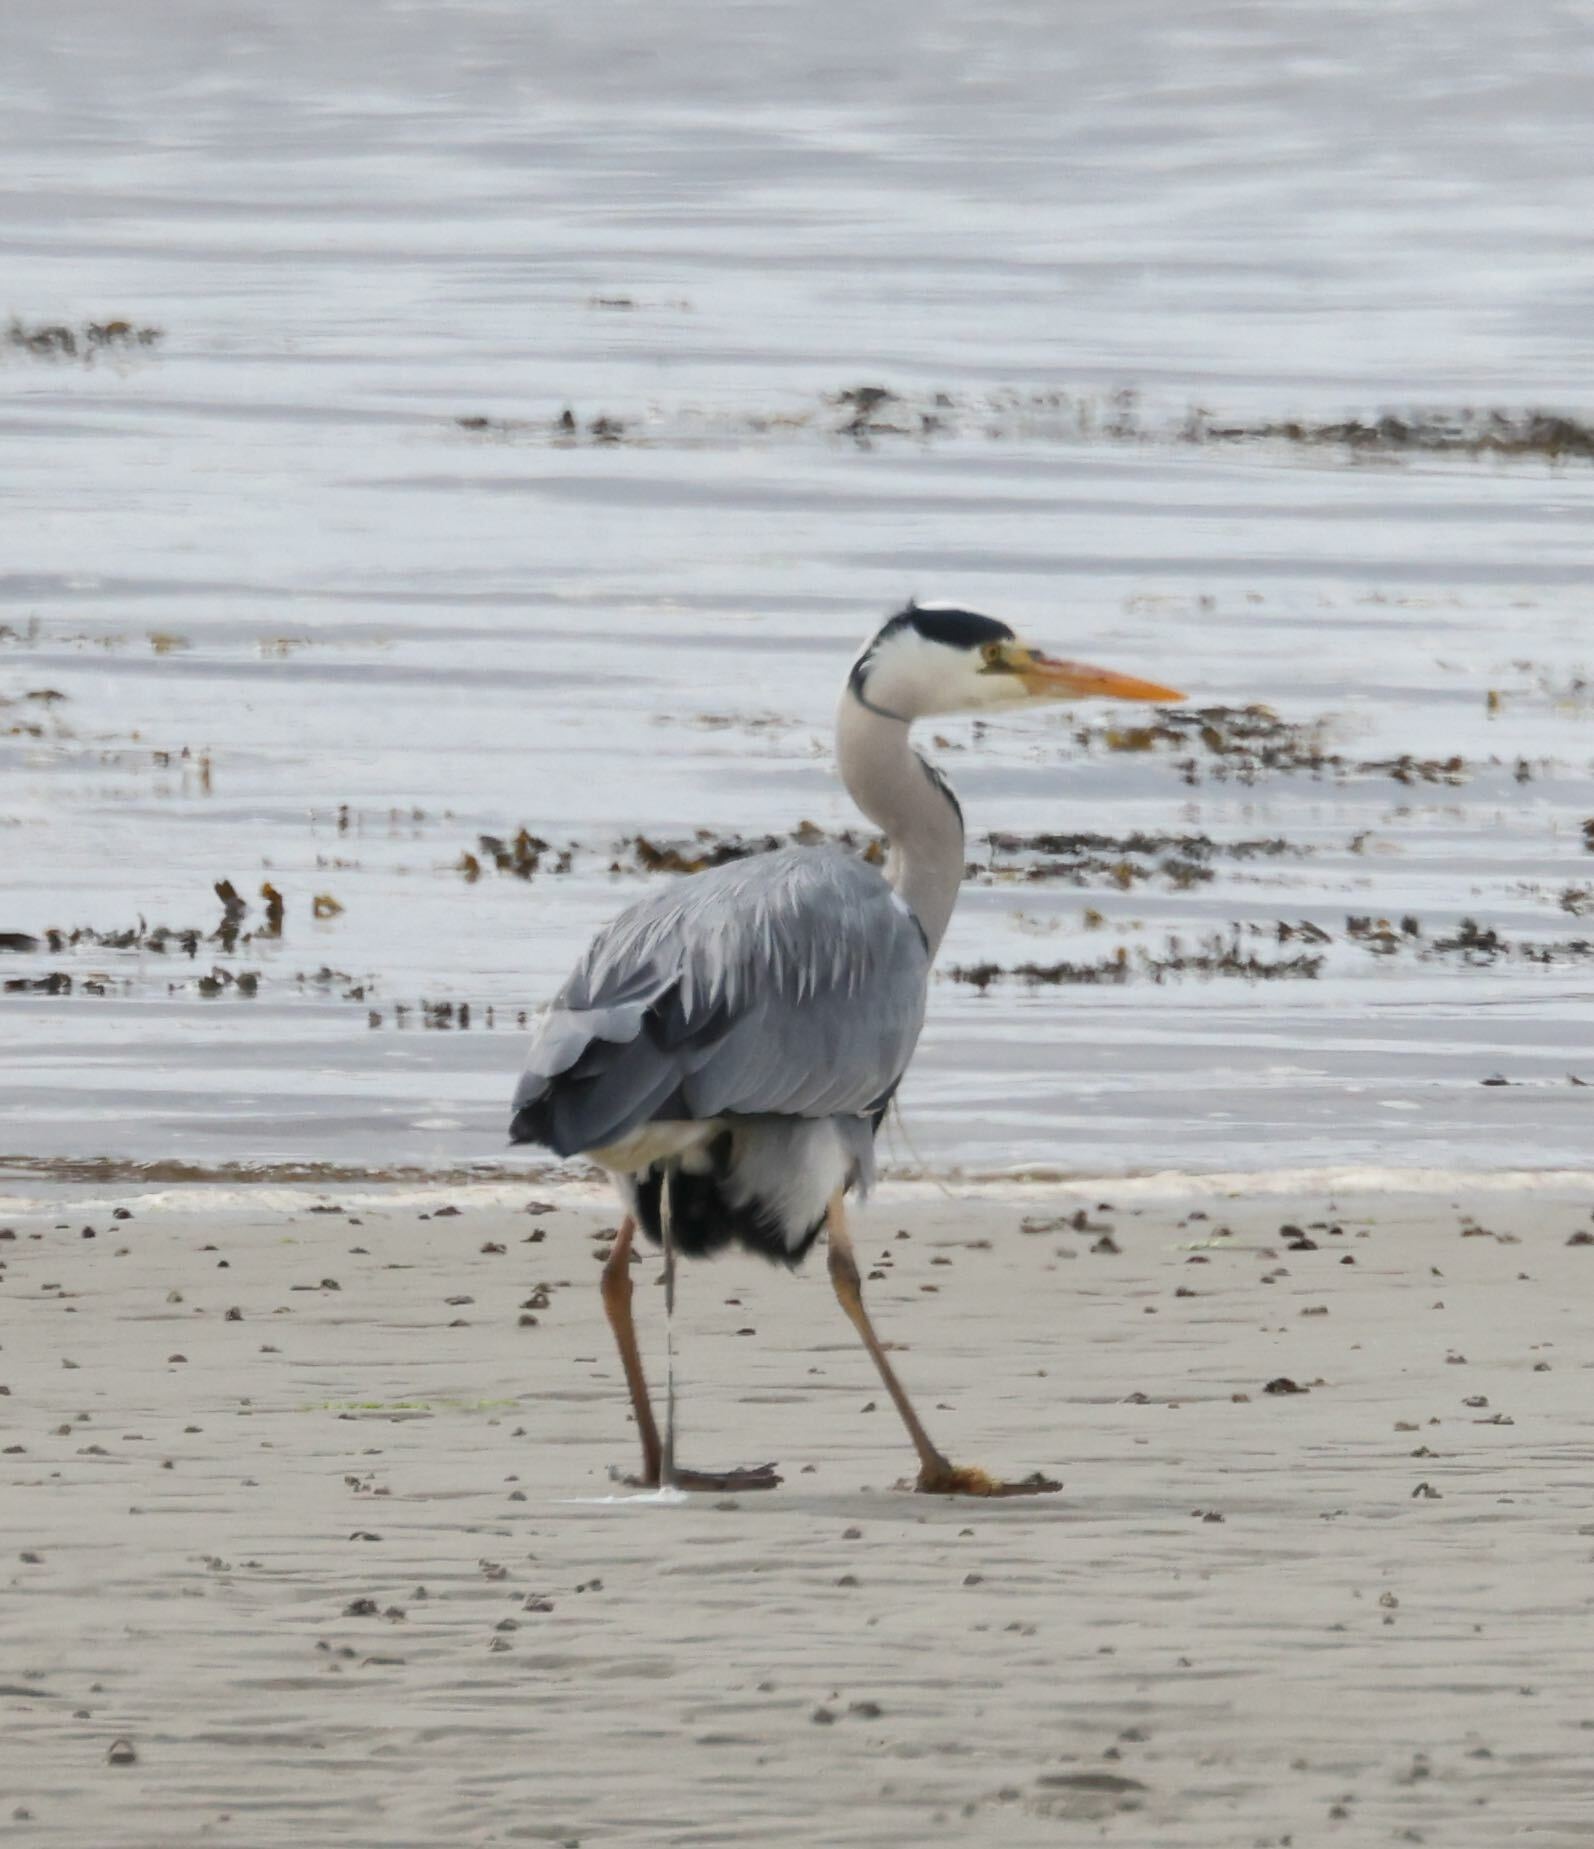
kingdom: Animalia
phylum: Chordata
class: Aves
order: Pelecaniformes
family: Ardeidae
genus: Ardea
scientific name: Ardea cinerea
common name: Grey heron
